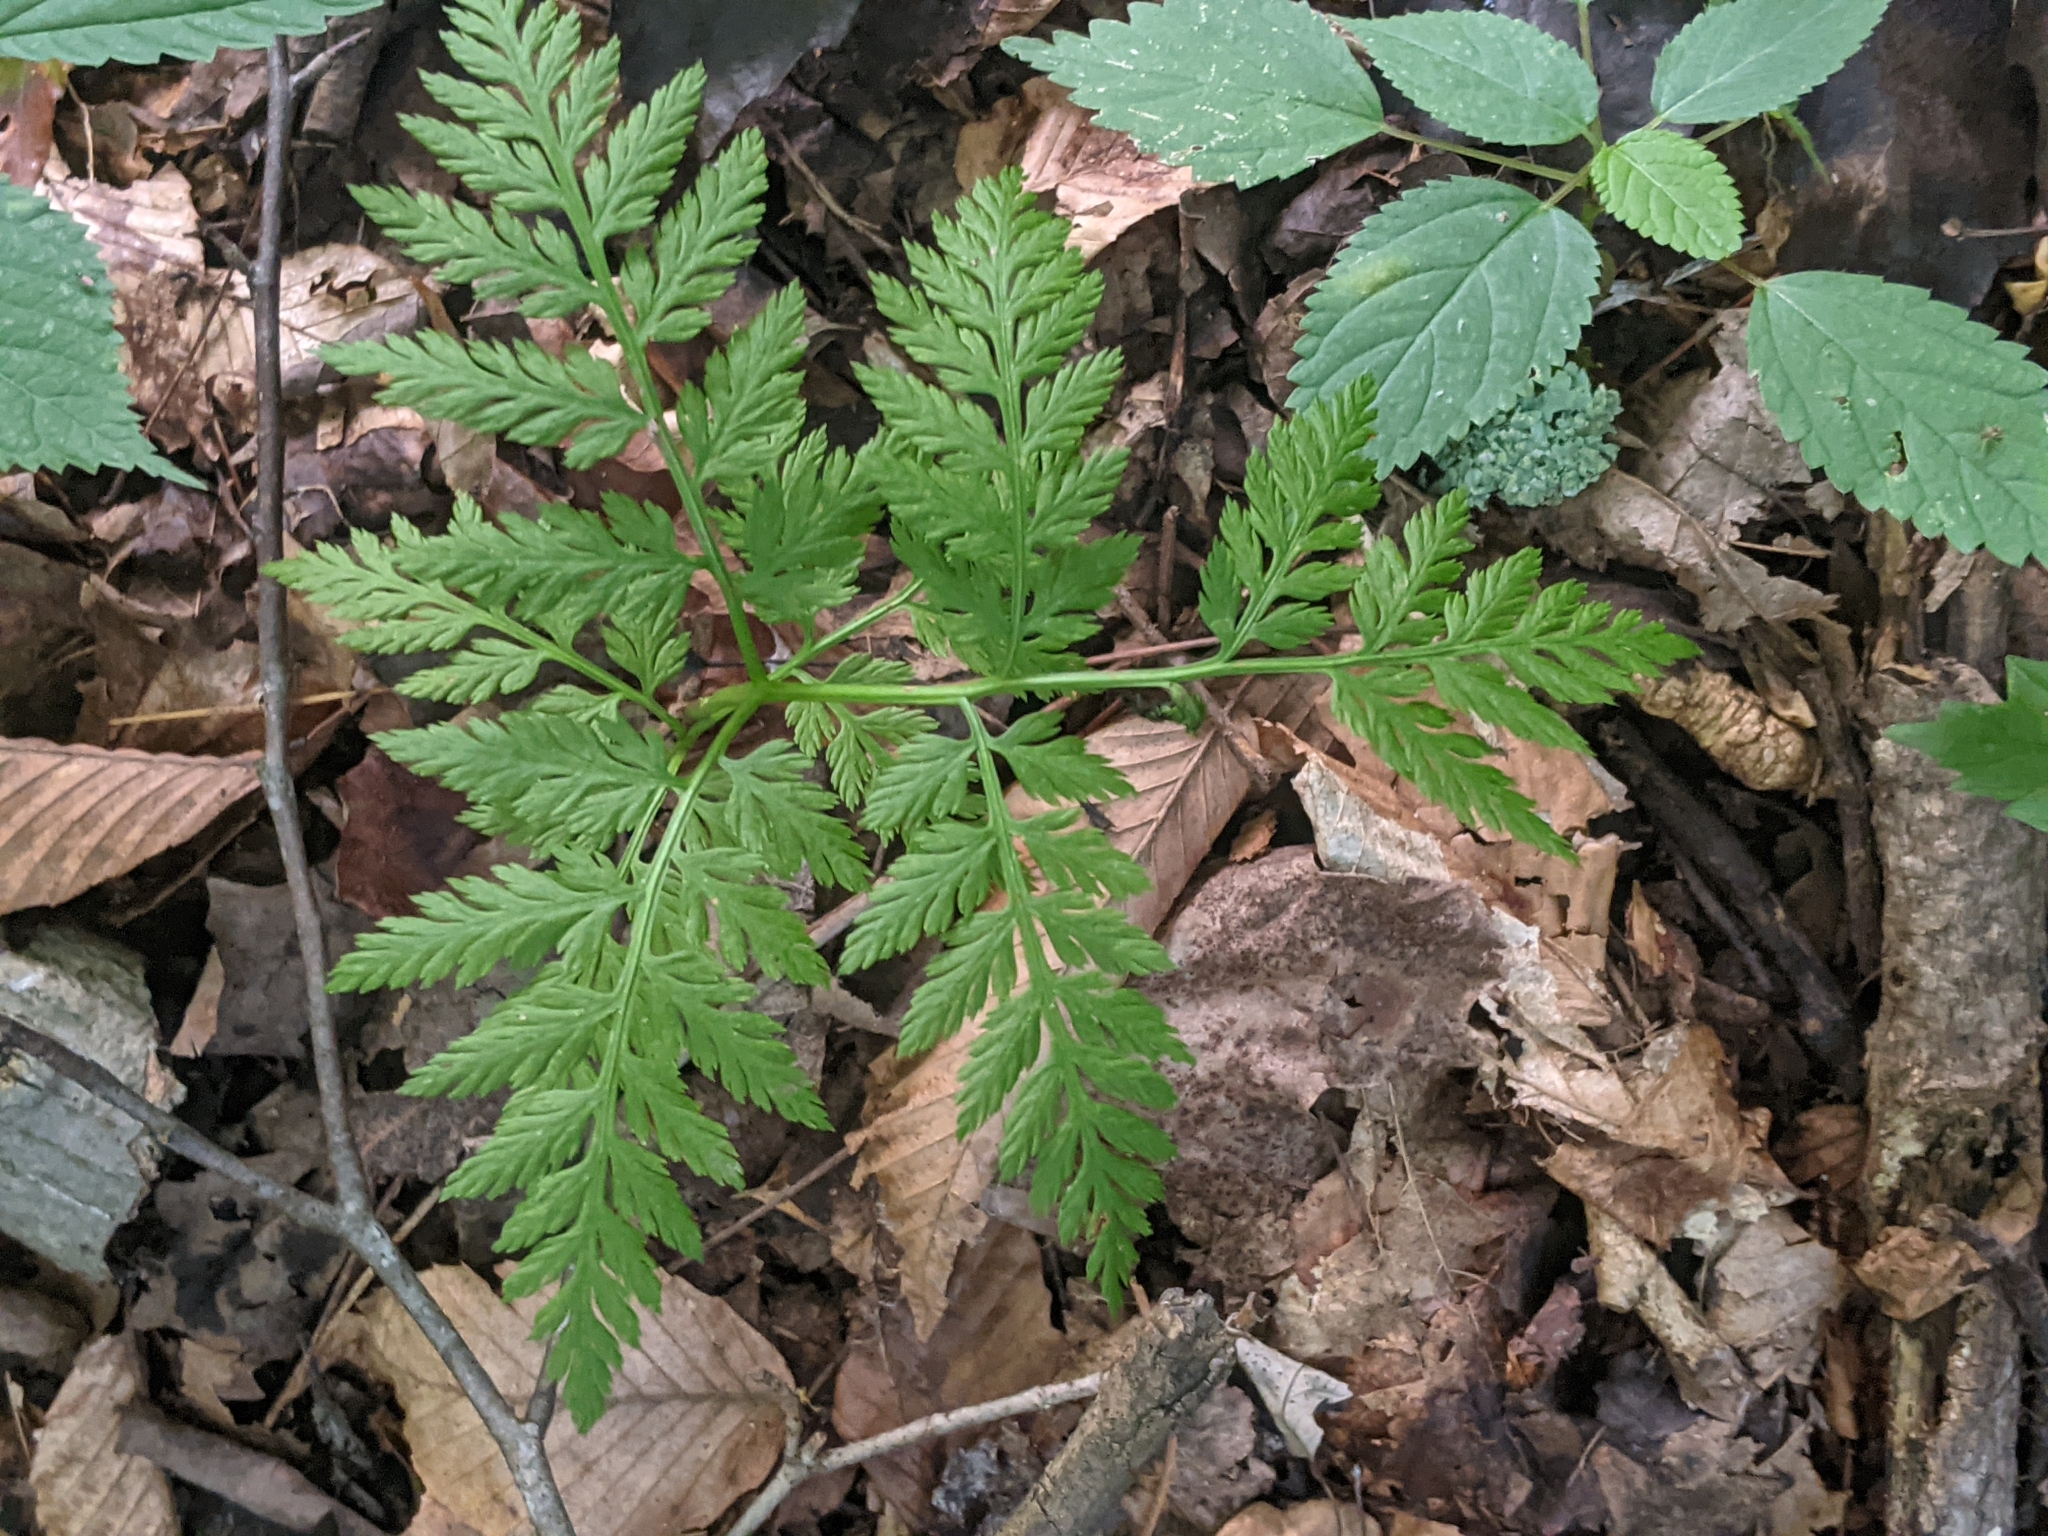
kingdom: Plantae
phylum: Tracheophyta
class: Polypodiopsida
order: Ophioglossales
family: Ophioglossaceae
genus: Botrypus
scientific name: Botrypus virginianus
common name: Common grapefern
